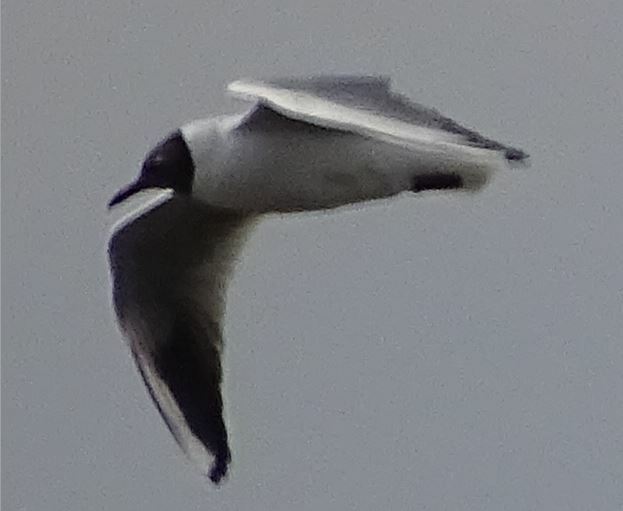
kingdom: Animalia
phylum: Chordata
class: Aves
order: Charadriiformes
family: Laridae
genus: Chroicocephalus
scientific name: Chroicocephalus ridibundus
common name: Black-headed gull
